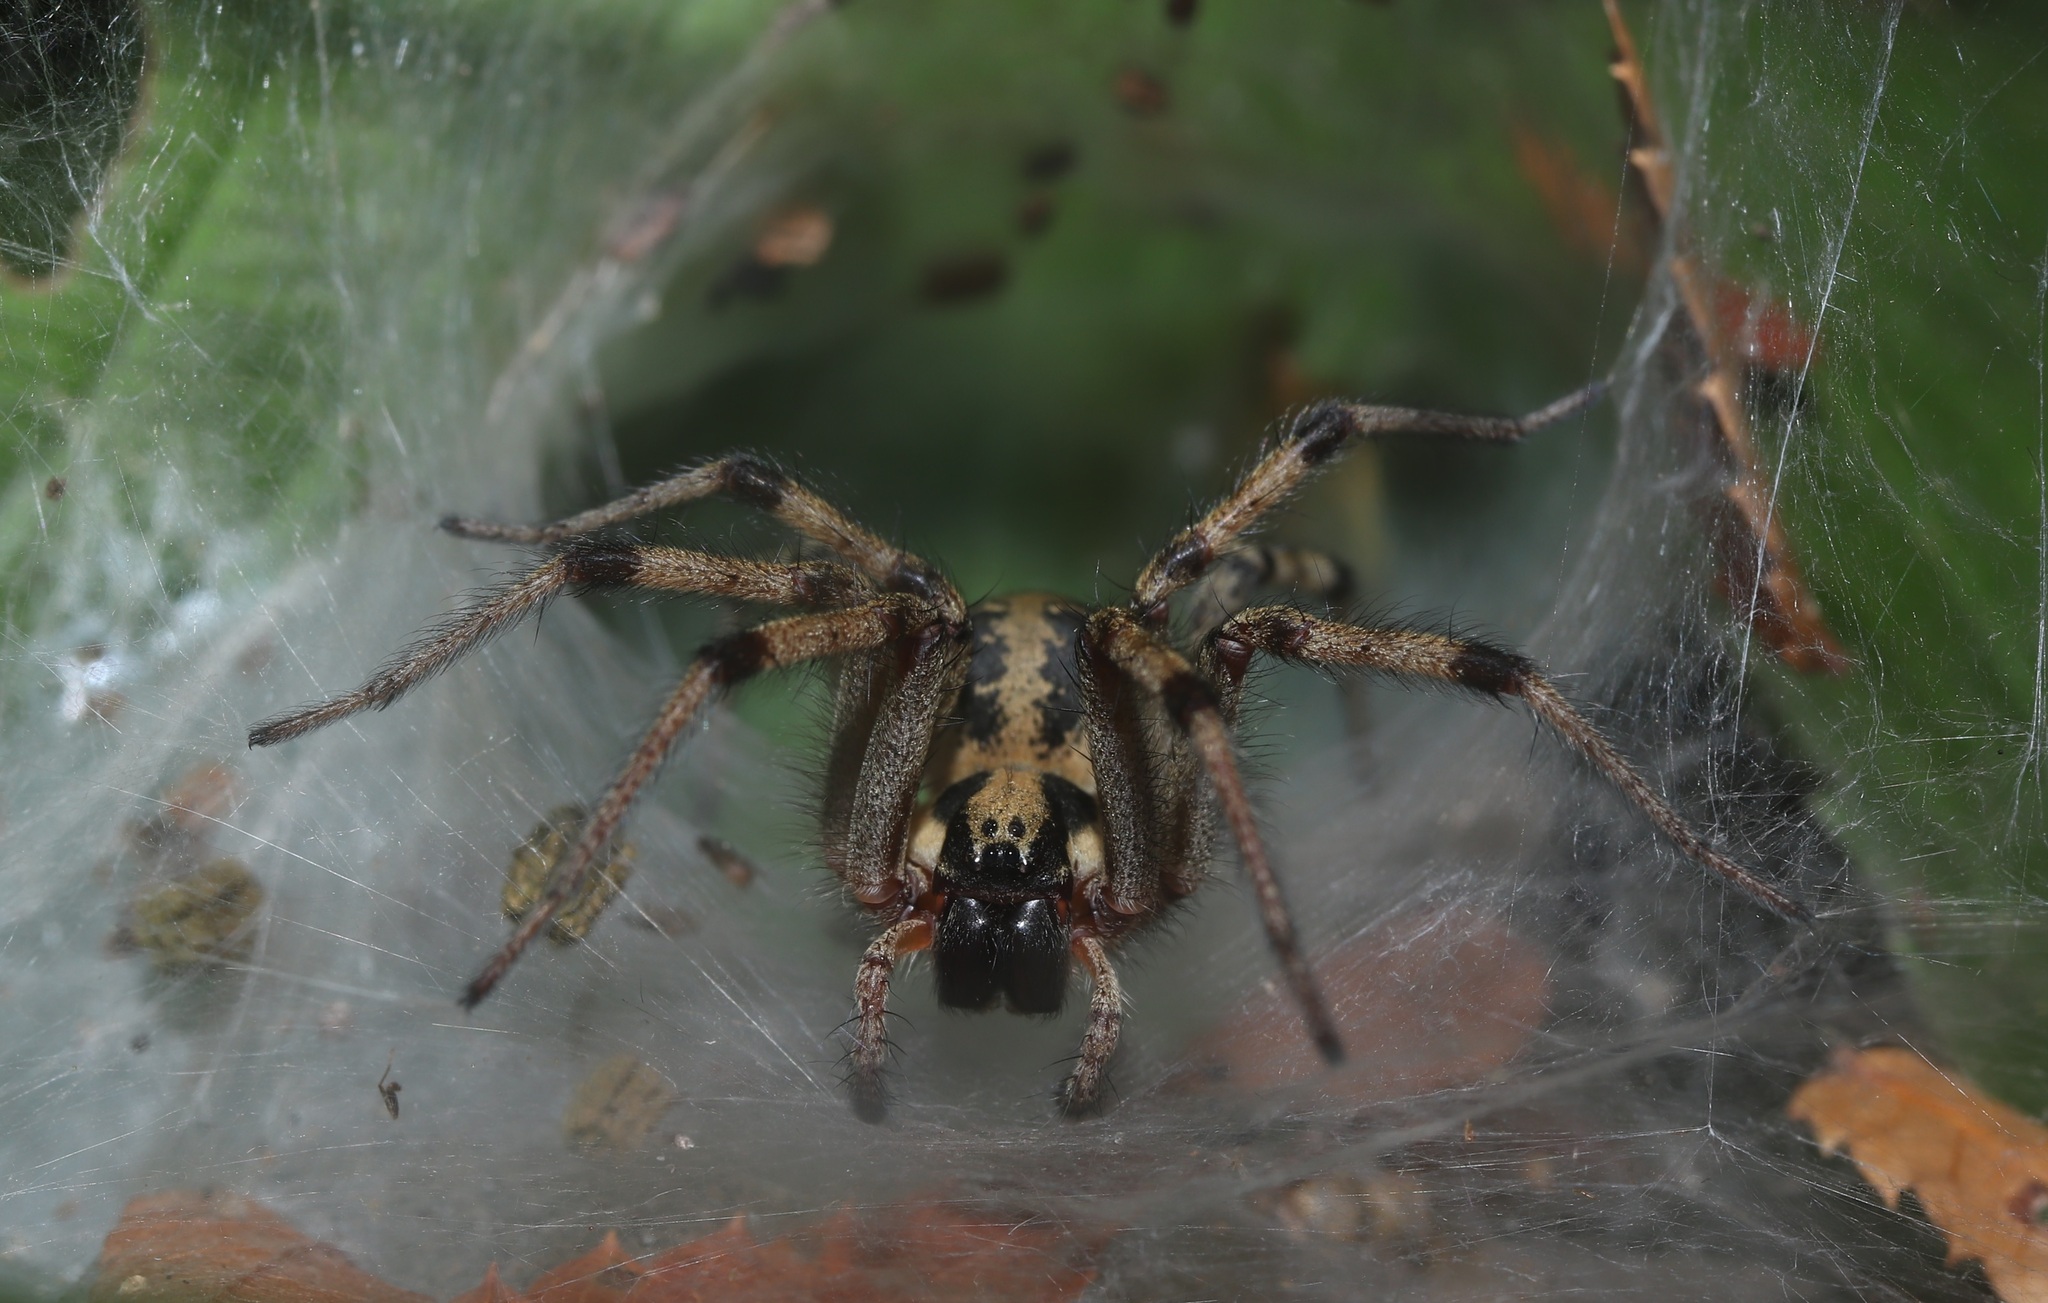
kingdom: Animalia
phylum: Arthropoda
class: Arachnida
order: Araneae
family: Agelenidae
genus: Agelena
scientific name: Agelena silvatica
